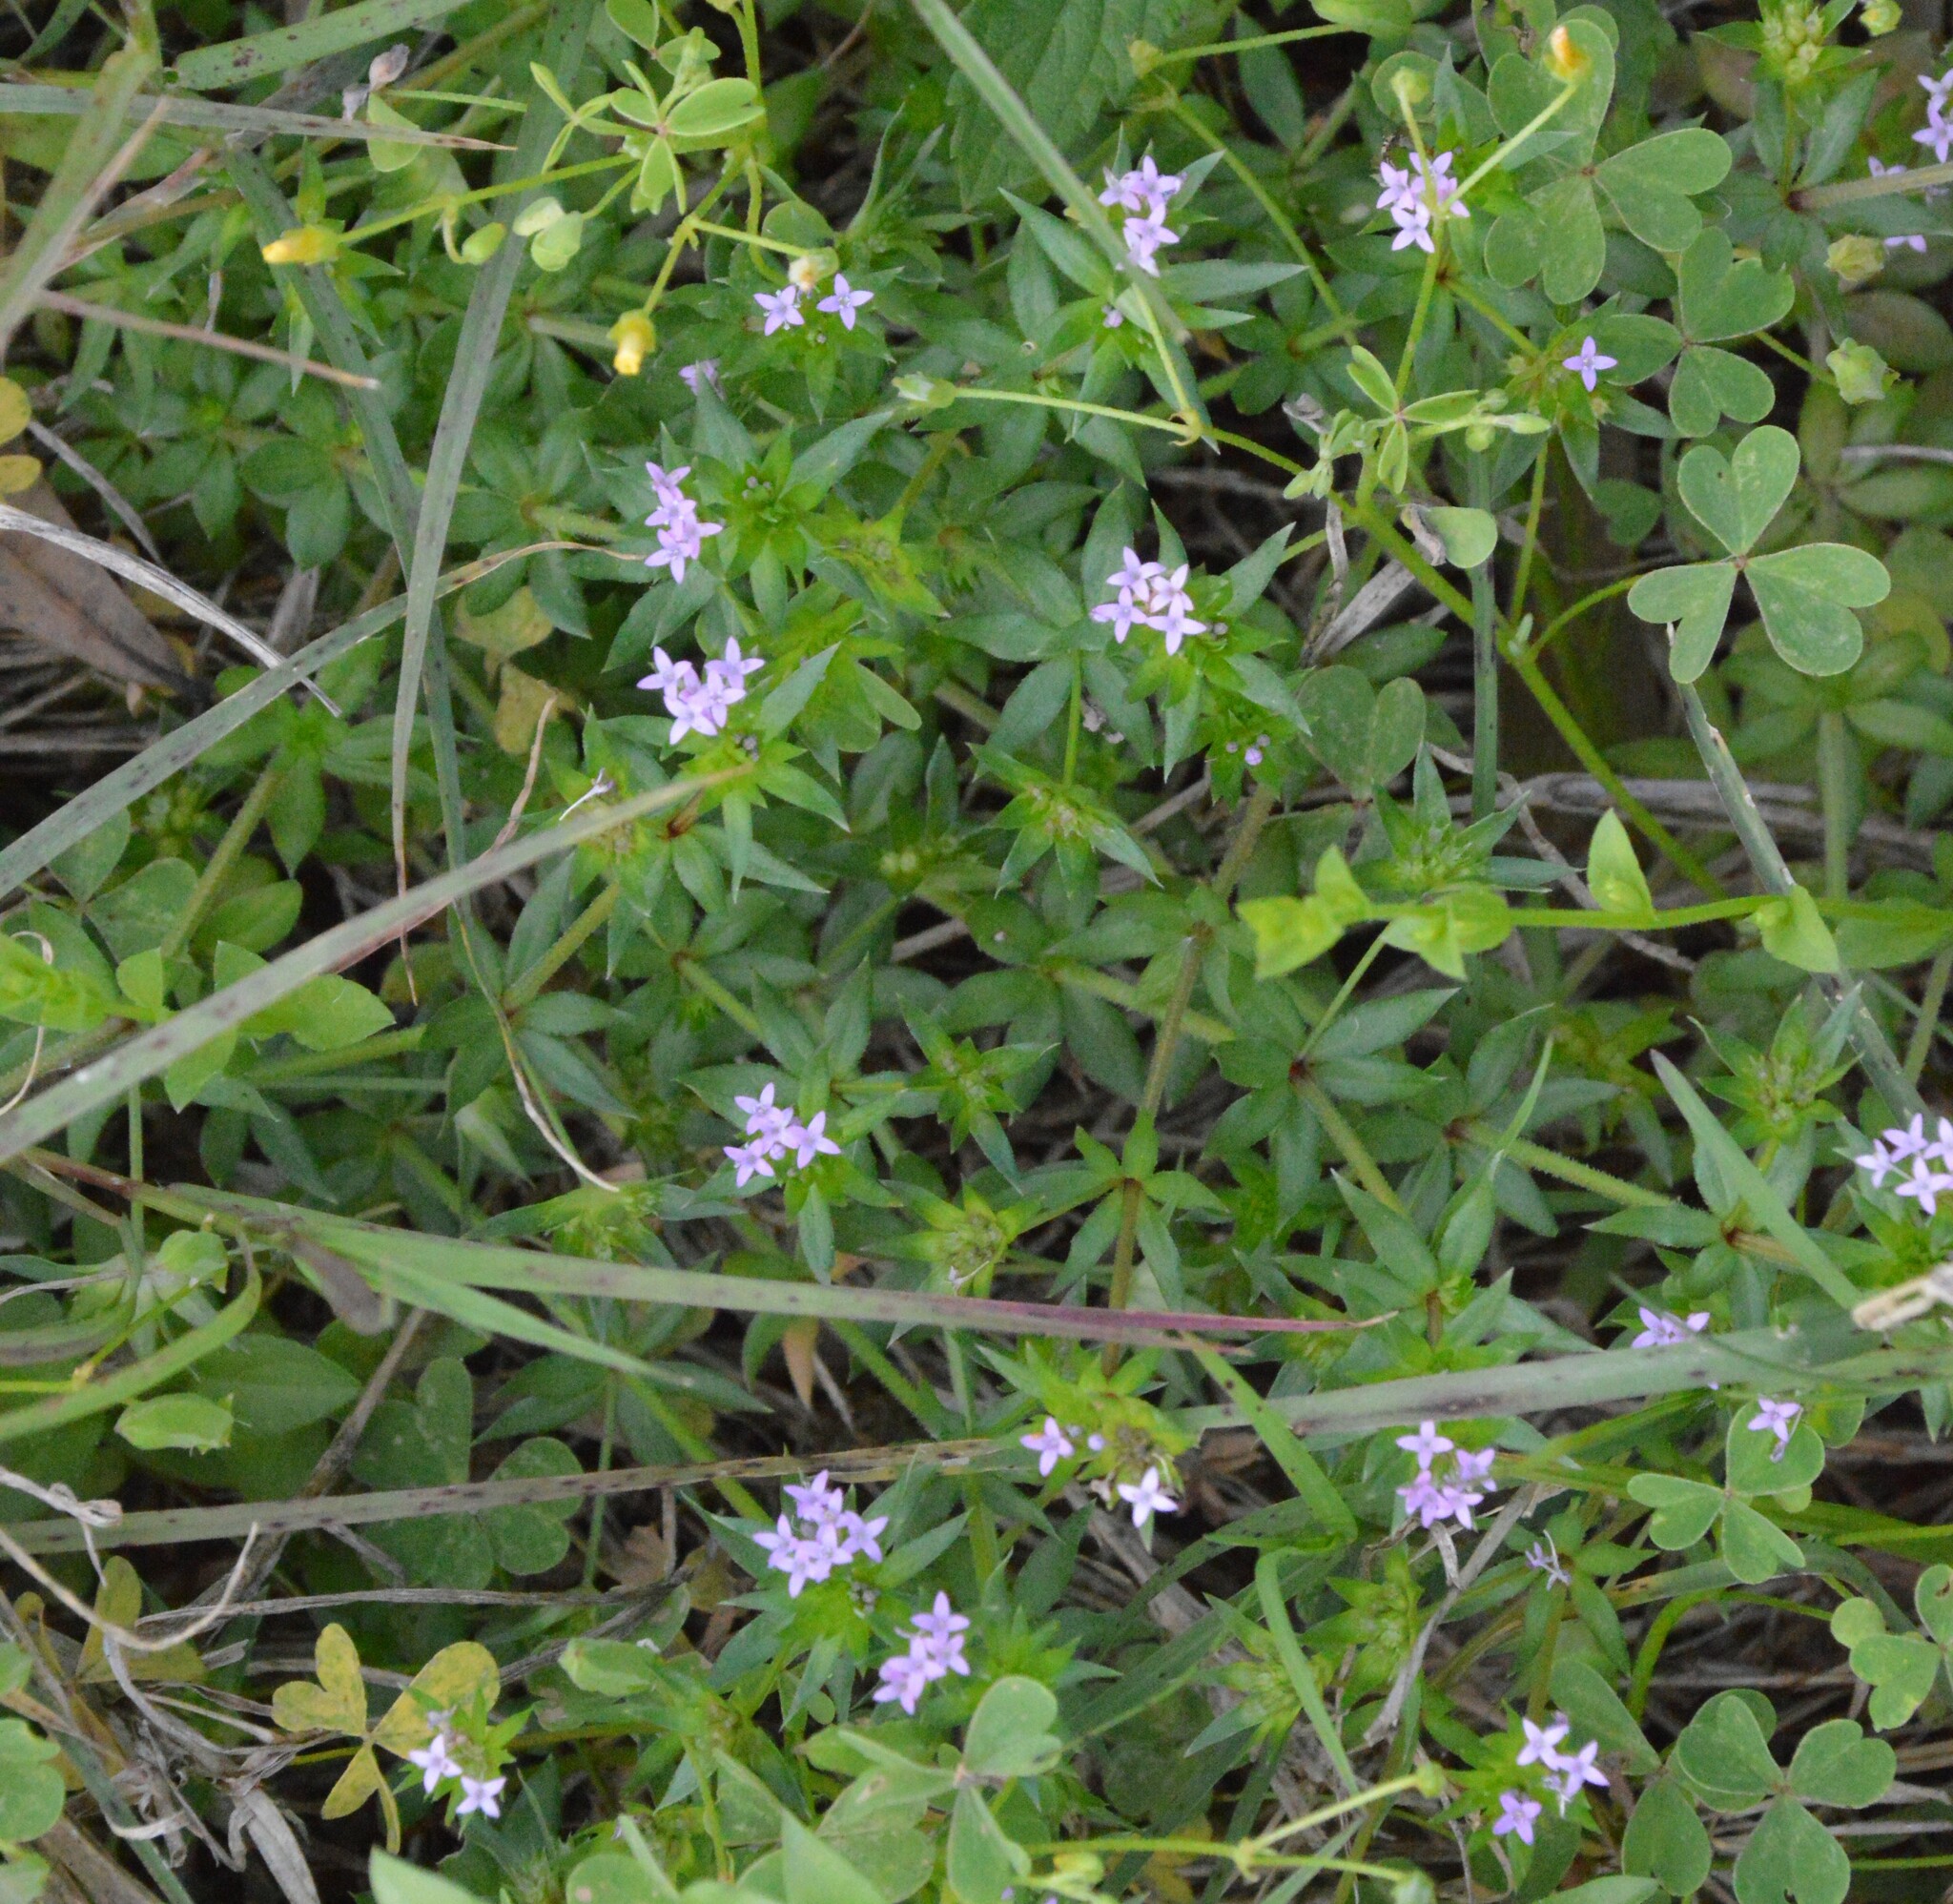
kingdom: Plantae
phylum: Tracheophyta
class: Magnoliopsida
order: Gentianales
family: Rubiaceae
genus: Sherardia
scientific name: Sherardia arvensis
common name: Field madder
